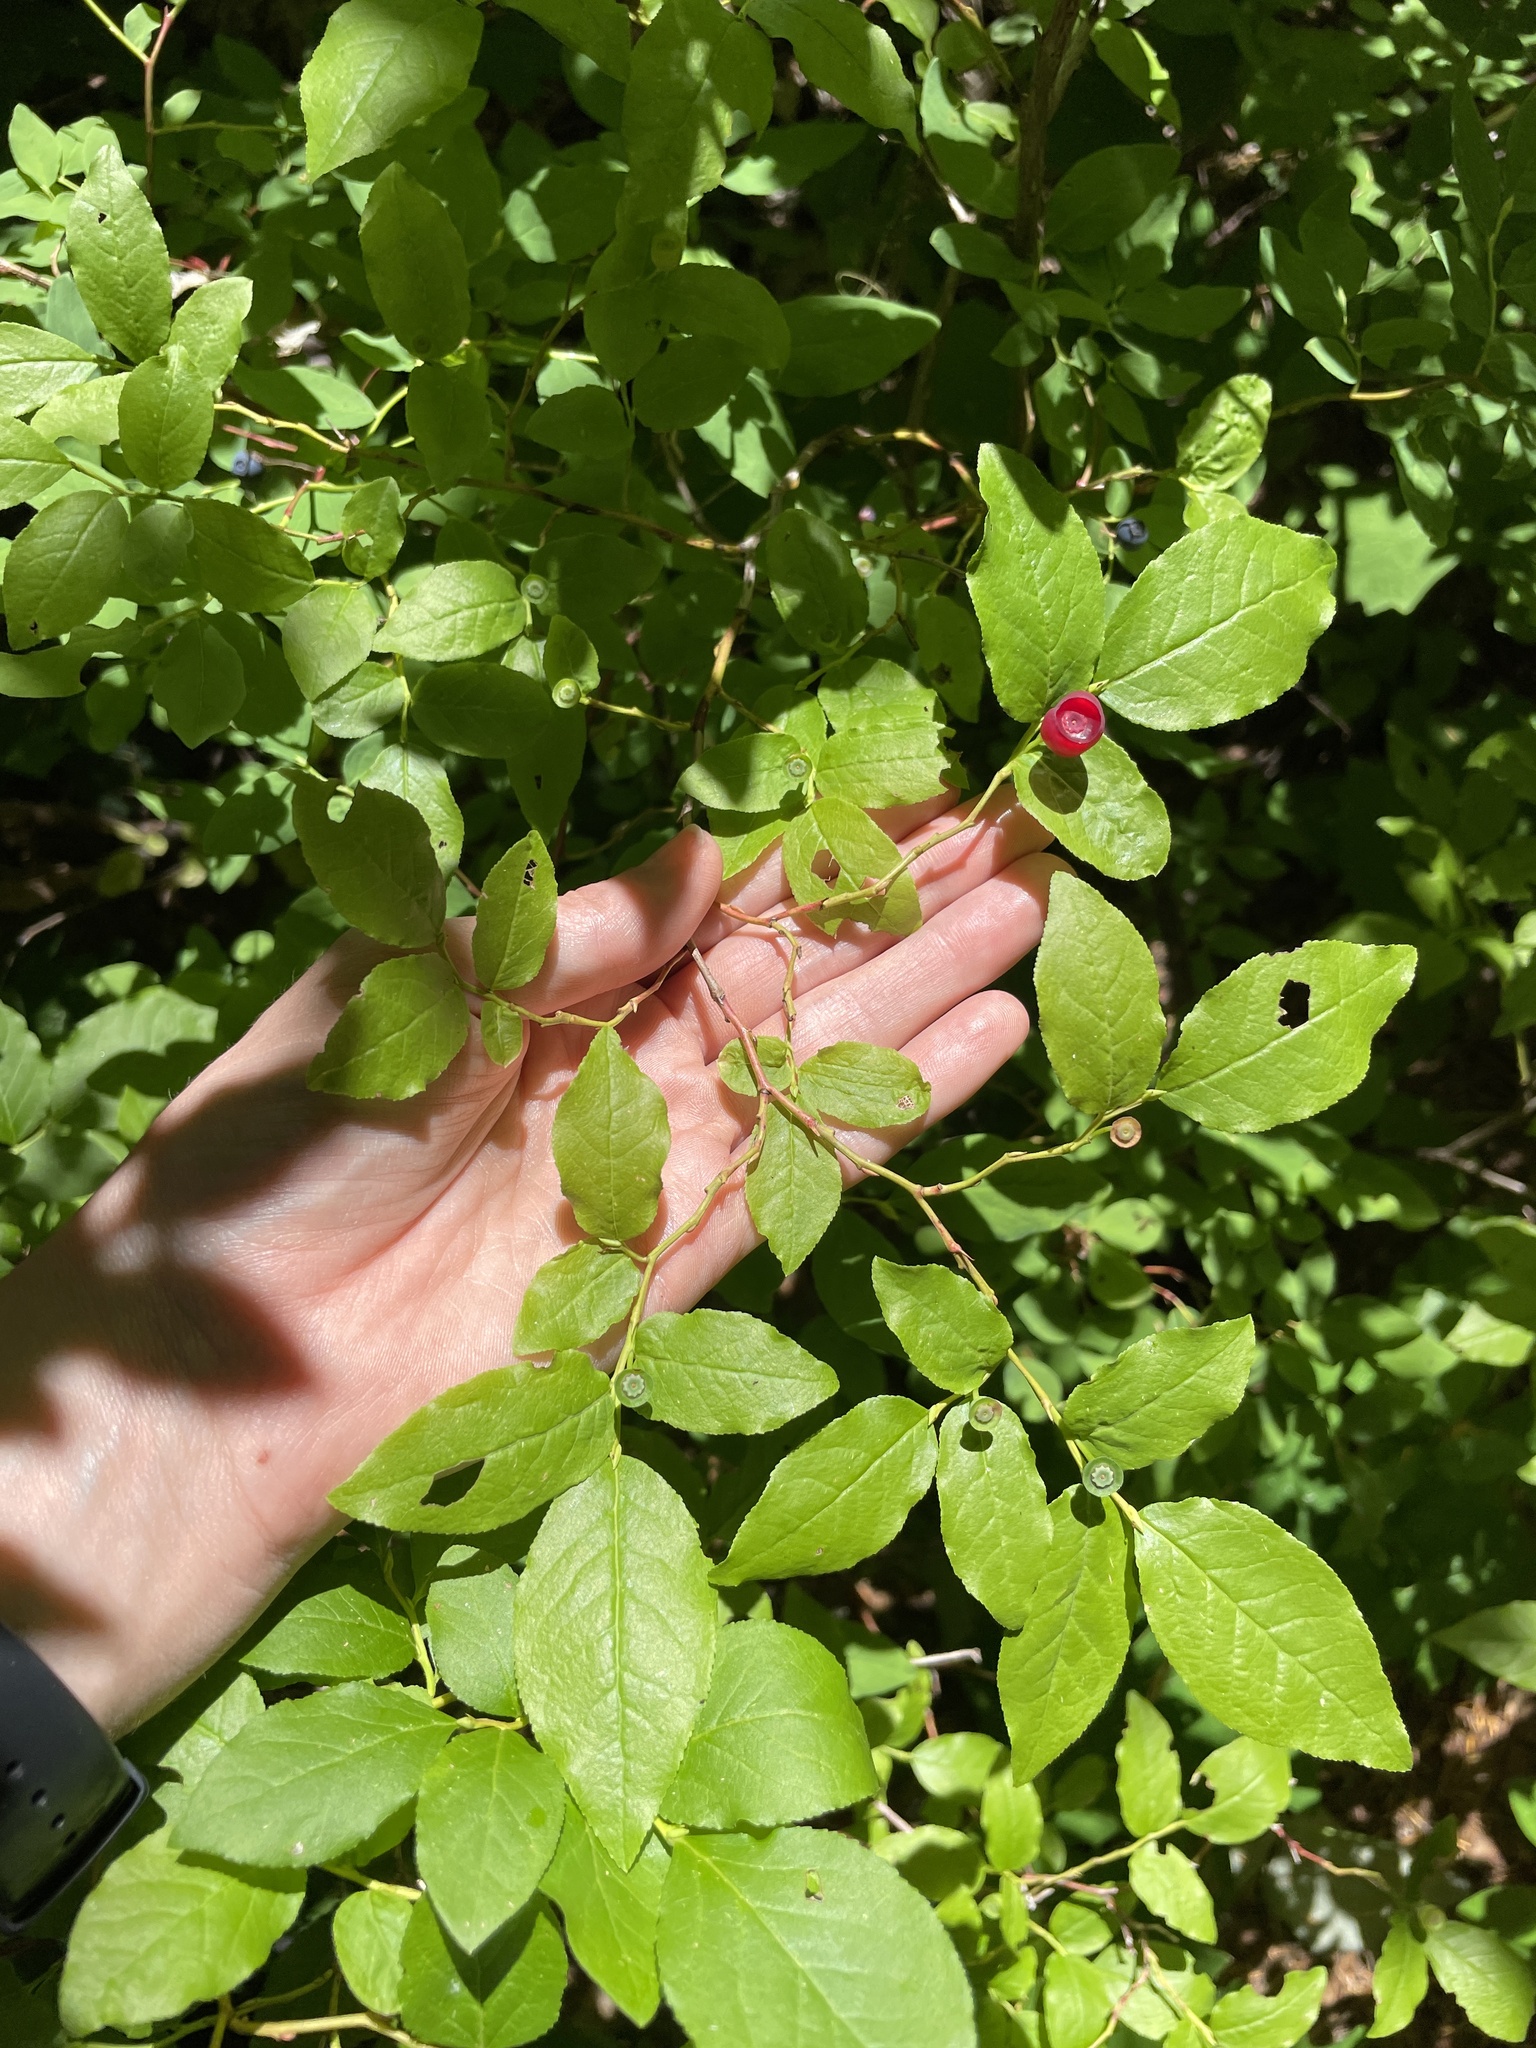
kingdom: Plantae
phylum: Tracheophyta
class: Magnoliopsida
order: Ericales
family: Ericaceae
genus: Vaccinium
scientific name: Vaccinium membranaceum
